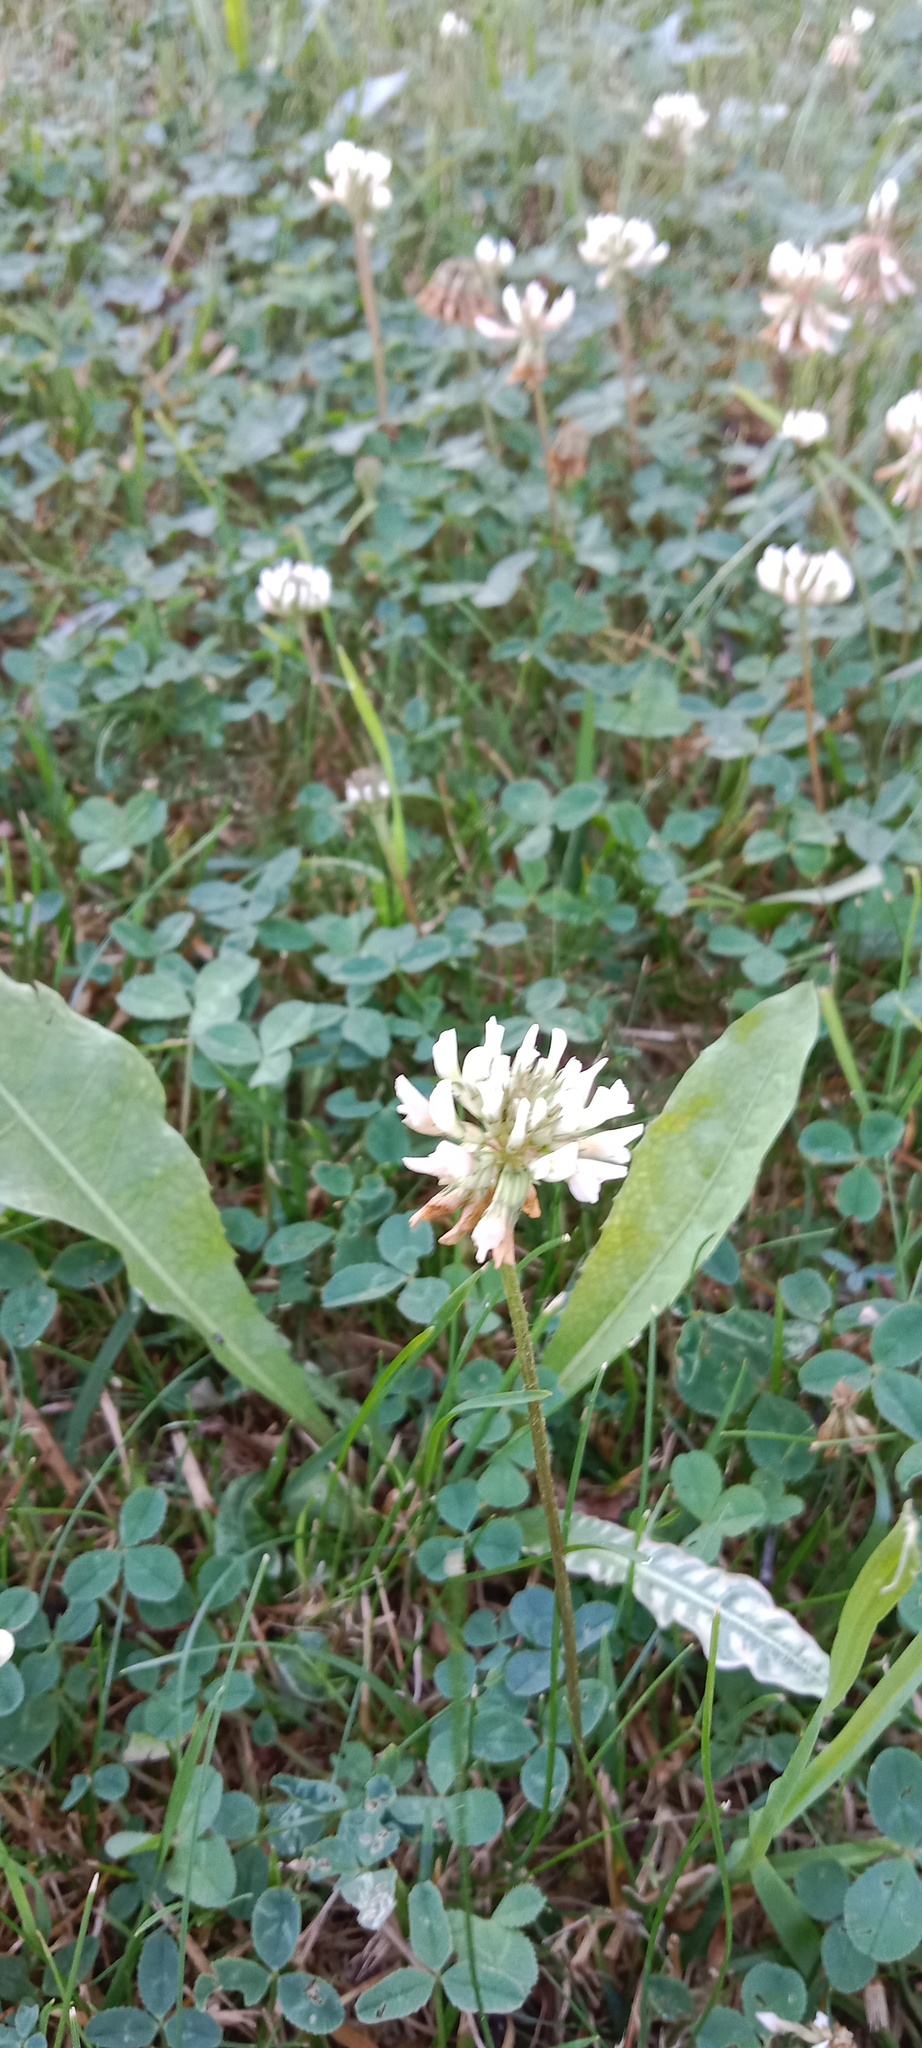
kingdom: Plantae
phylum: Tracheophyta
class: Magnoliopsida
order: Fabales
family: Fabaceae
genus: Trifolium
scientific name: Trifolium repens
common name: White clover
